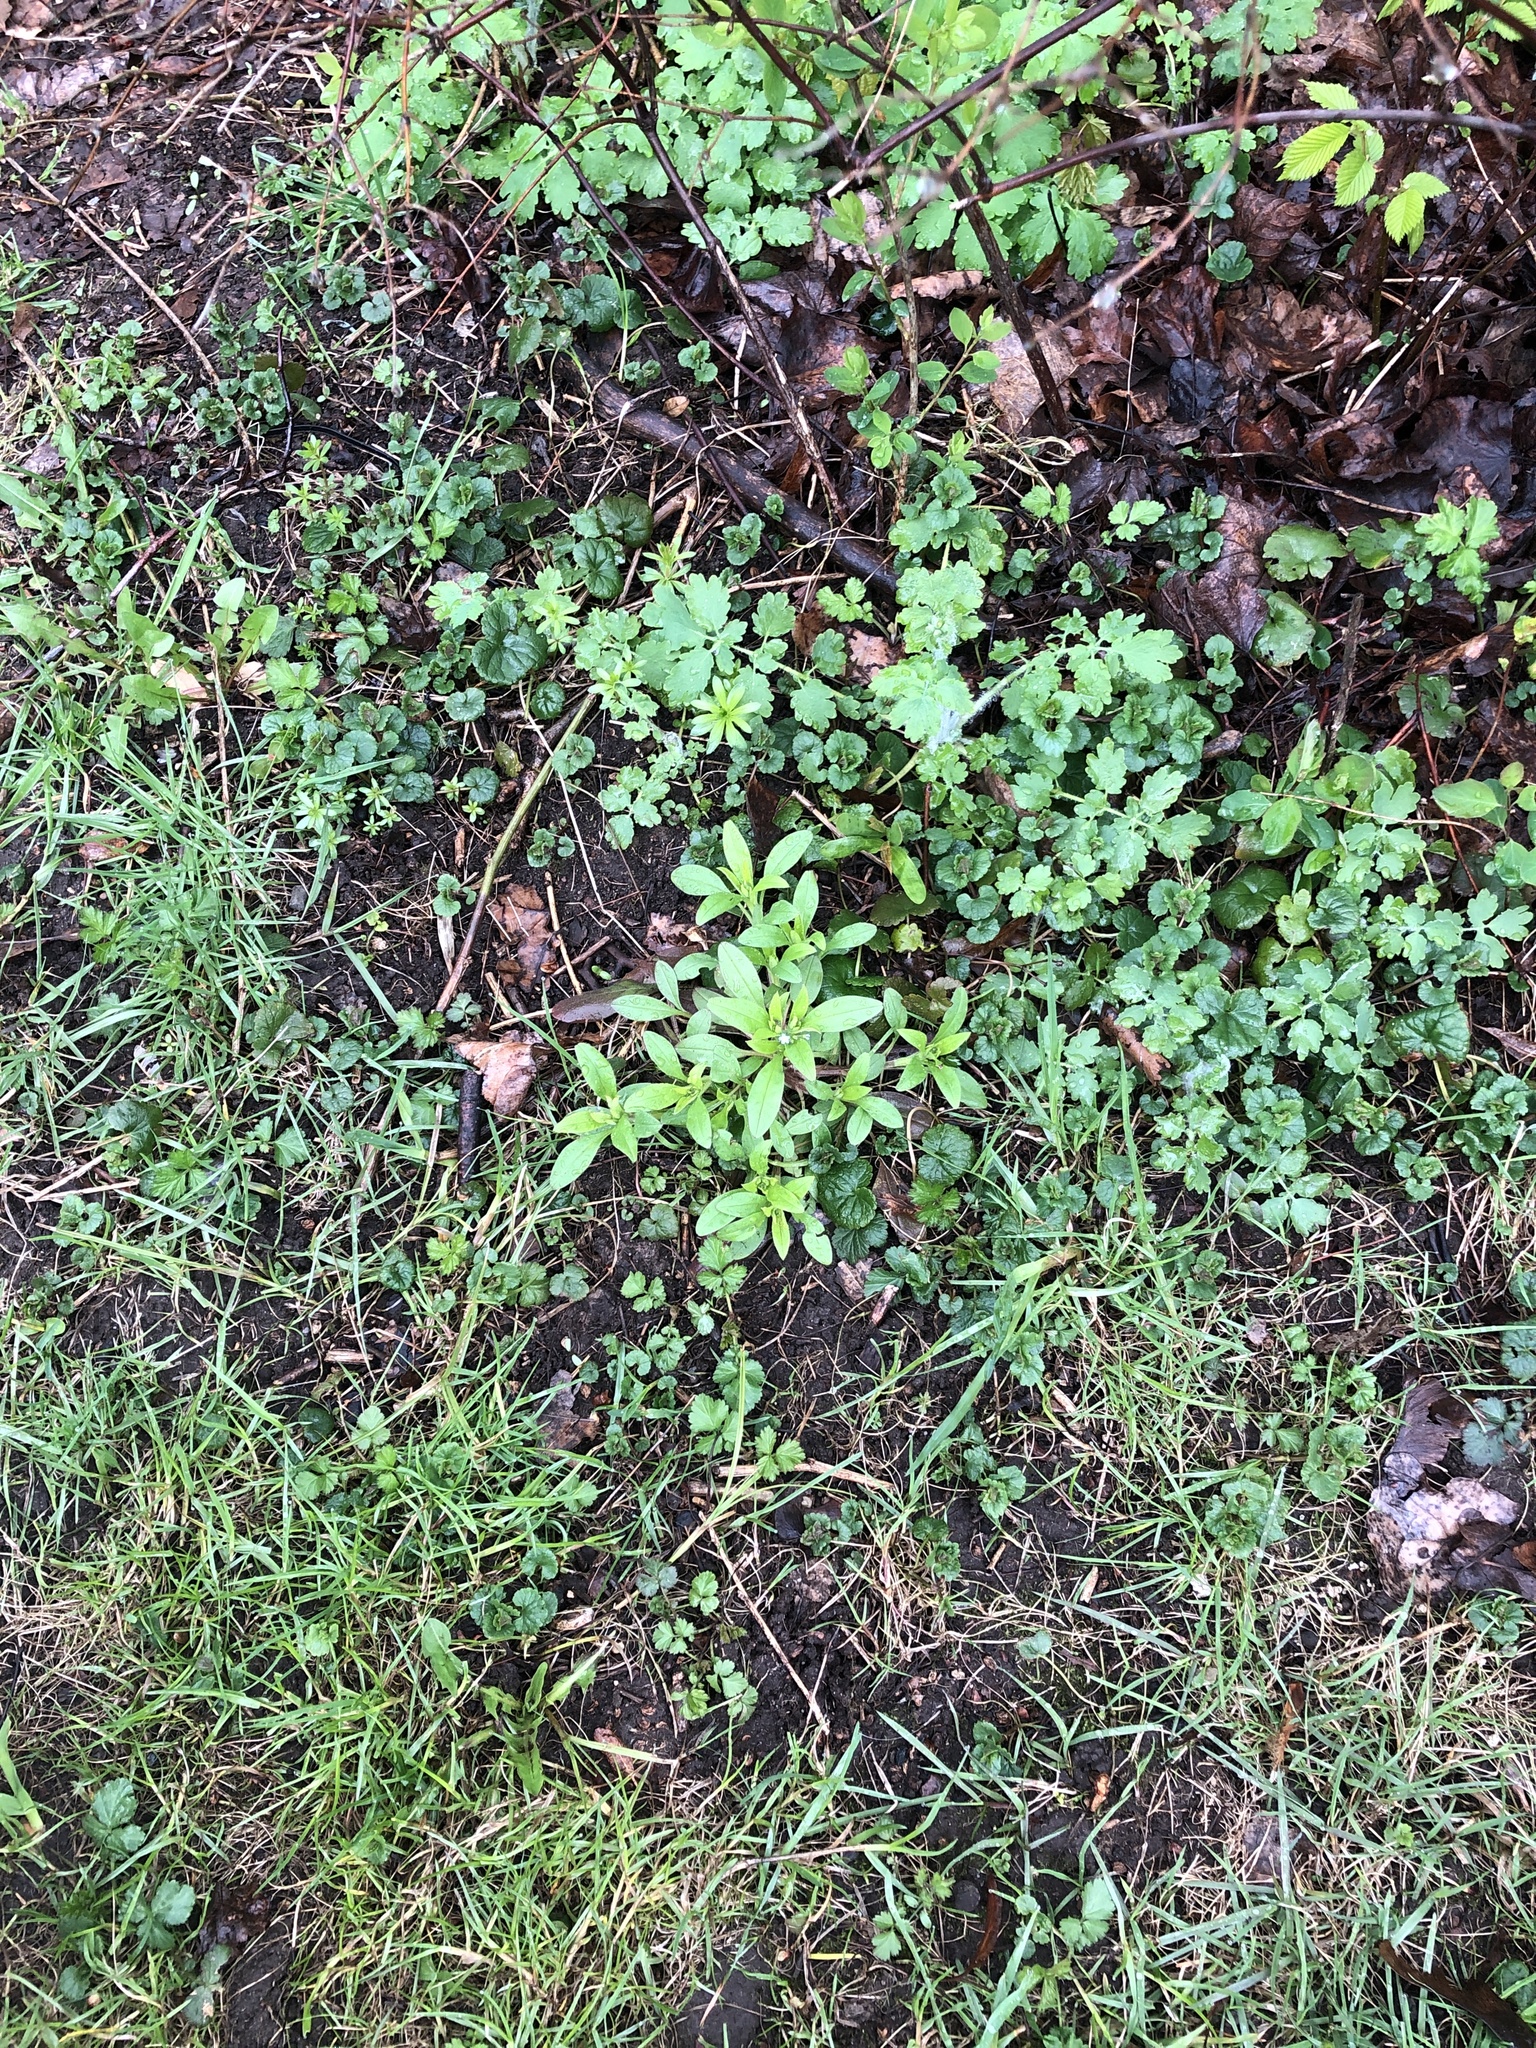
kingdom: Plantae
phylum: Tracheophyta
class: Magnoliopsida
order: Boraginales
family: Boraginaceae
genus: Myosotis
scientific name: Myosotis sparsiflora
